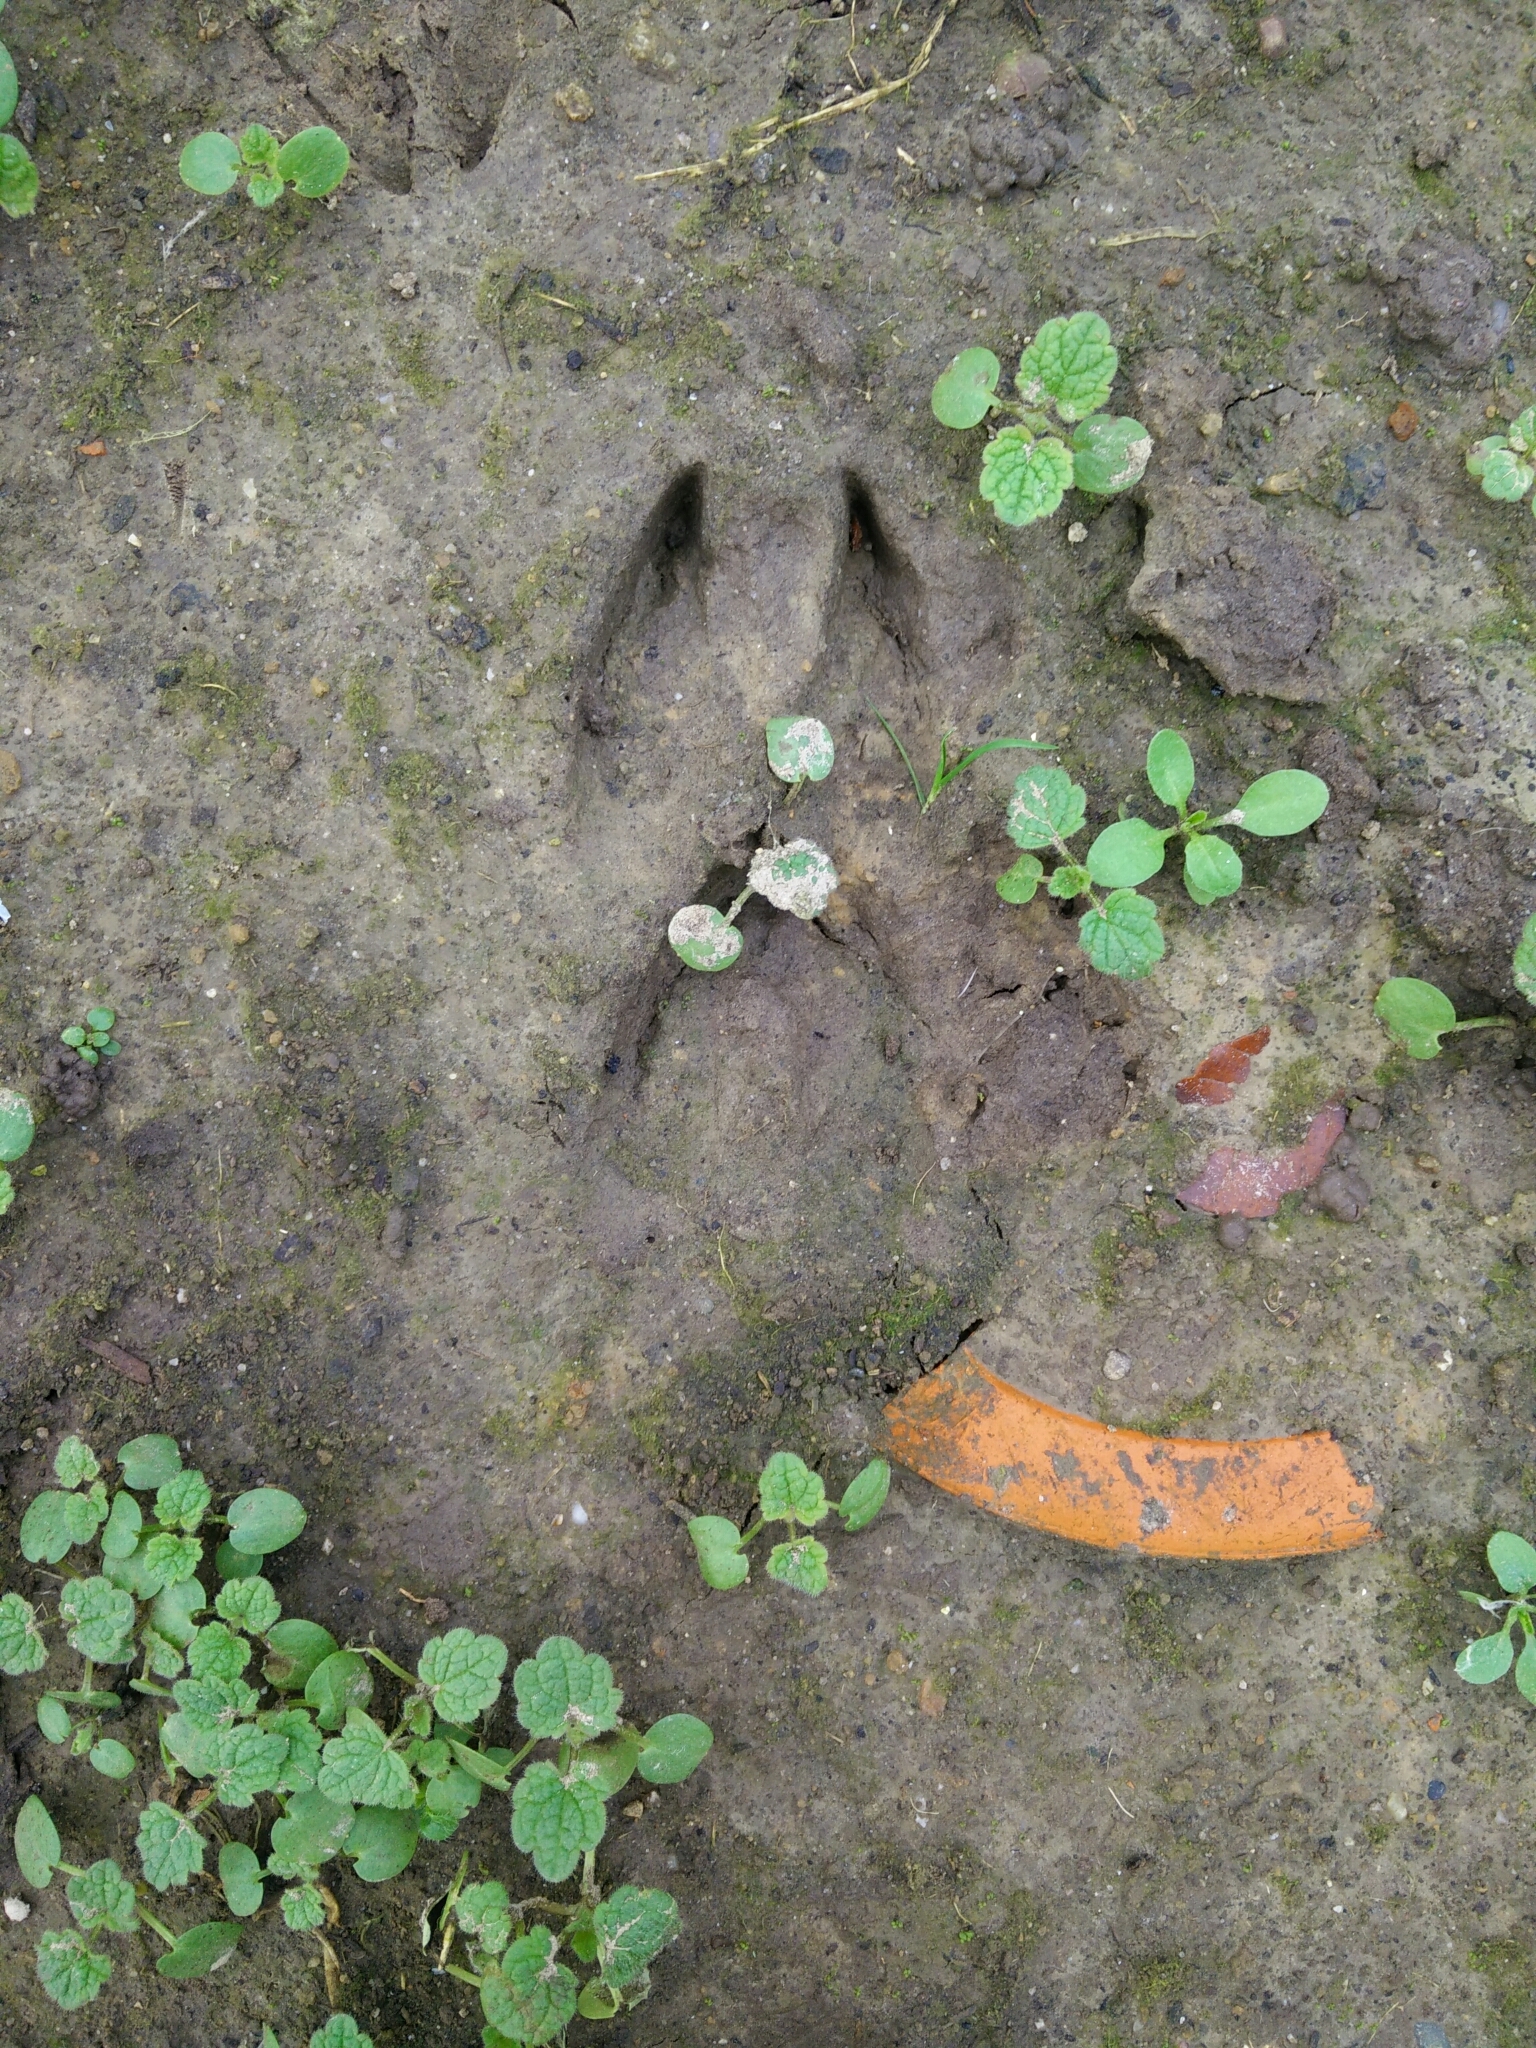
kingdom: Animalia
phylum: Chordata
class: Mammalia
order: Artiodactyla
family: Cervidae
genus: Capreolus
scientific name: Capreolus capreolus
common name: Western roe deer
